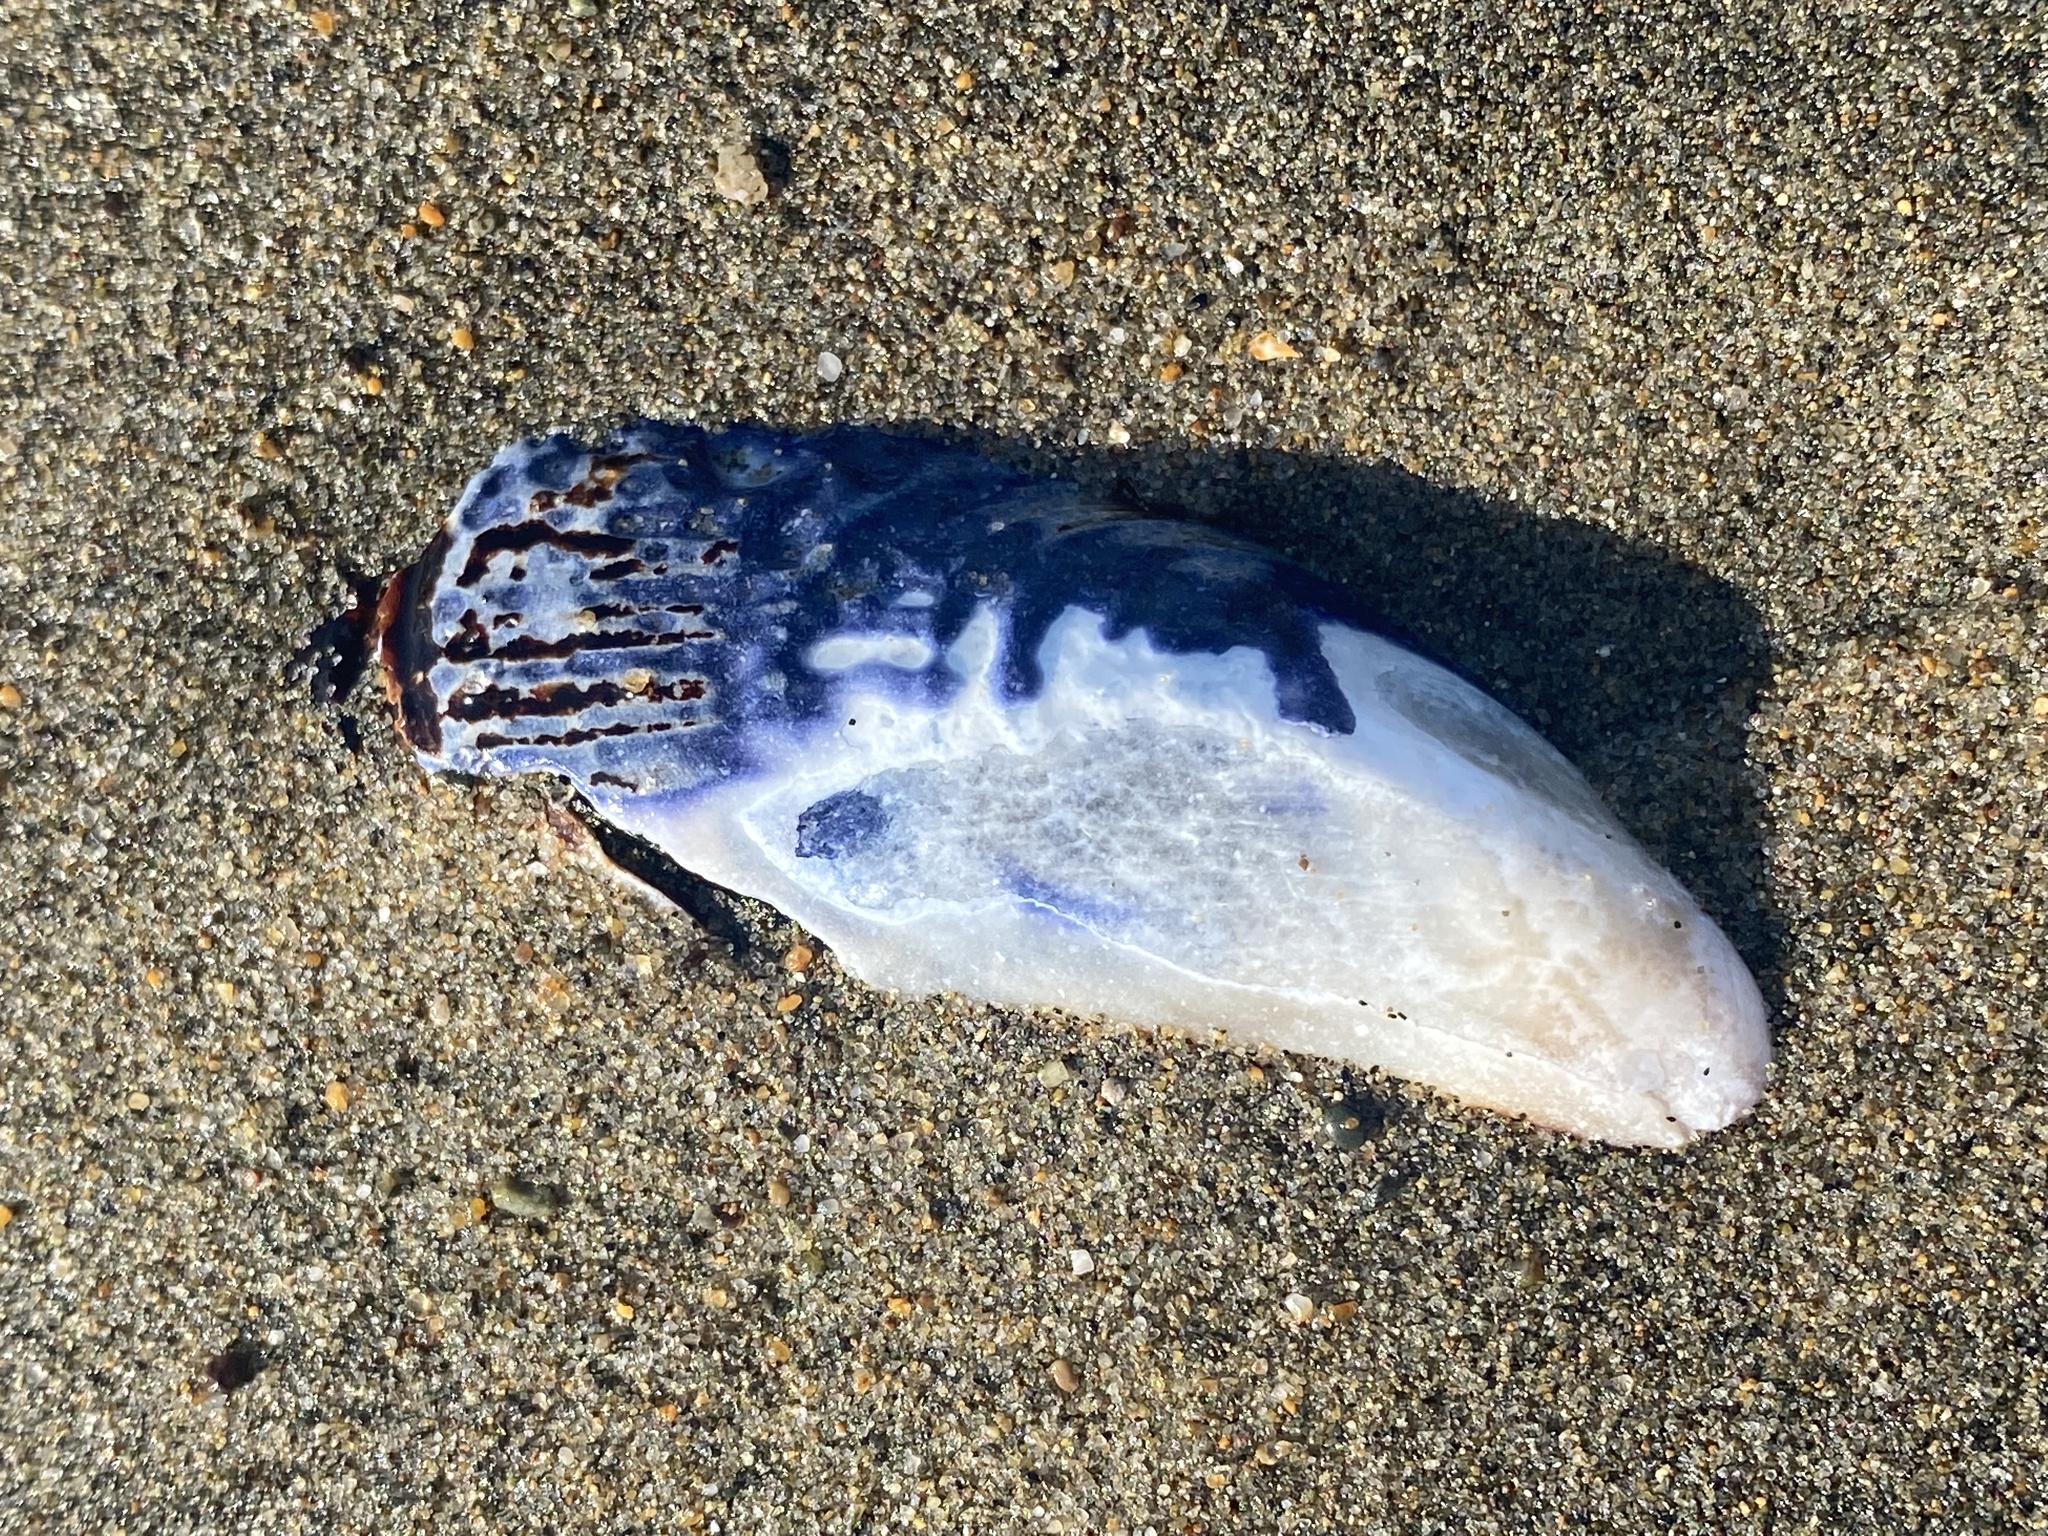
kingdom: Animalia
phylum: Mollusca
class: Bivalvia
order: Mytilida
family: Mytilidae
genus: Mytilus
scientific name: Mytilus californianus
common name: California mussel
